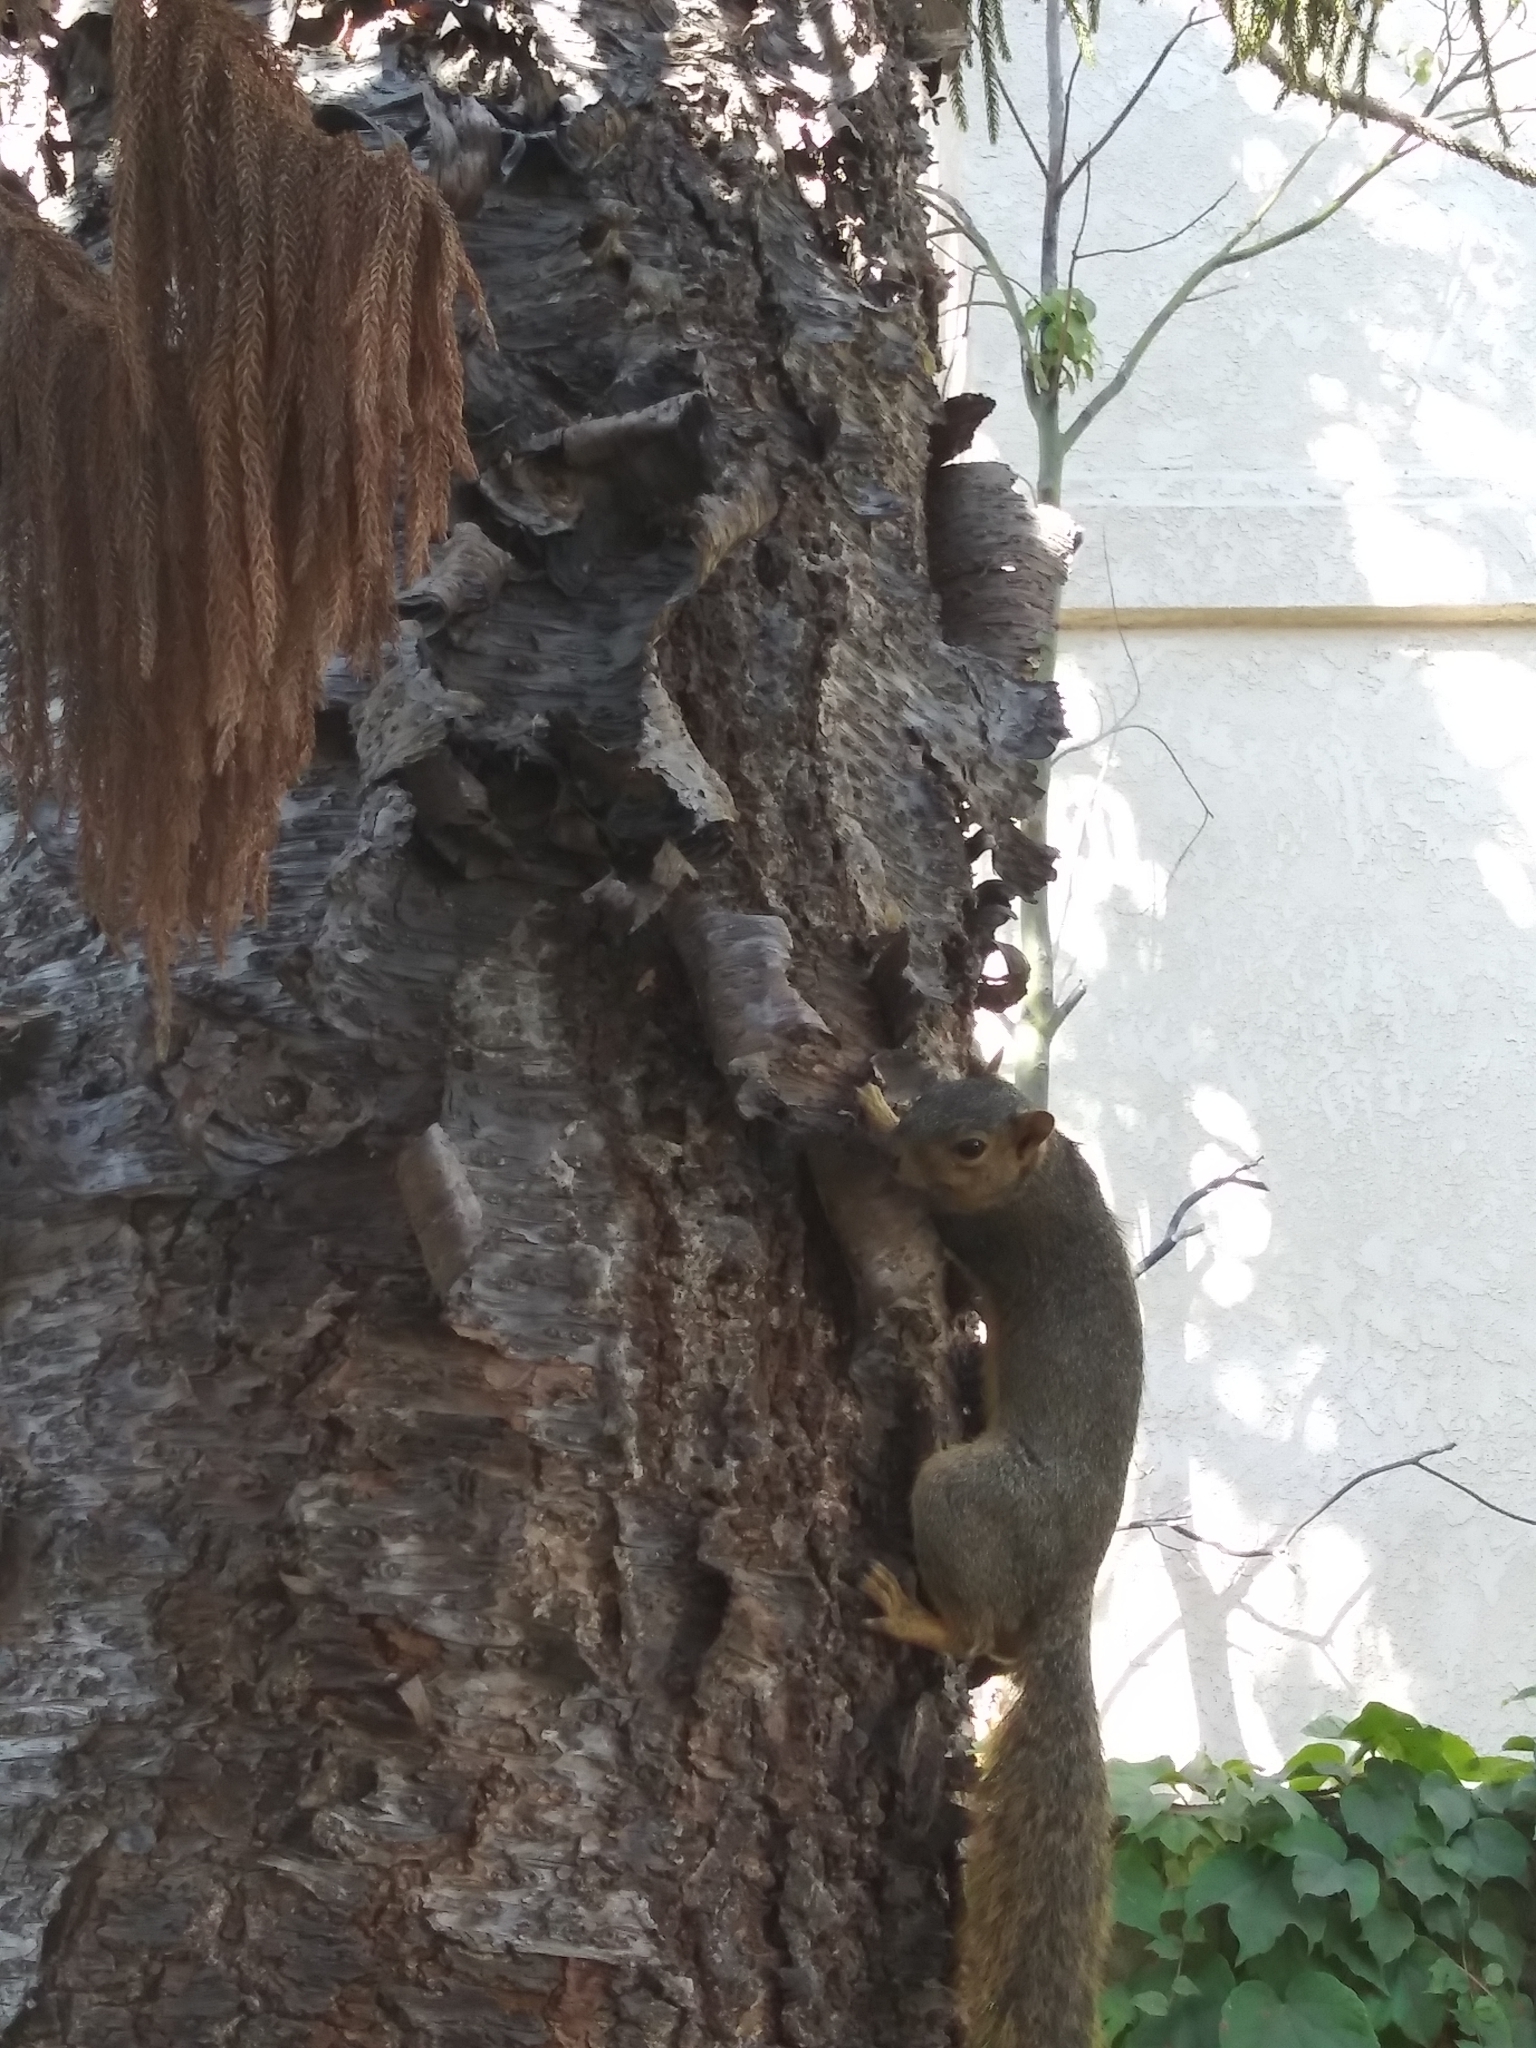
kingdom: Animalia
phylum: Chordata
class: Mammalia
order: Rodentia
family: Sciuridae
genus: Sciurus
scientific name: Sciurus niger
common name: Fox squirrel
